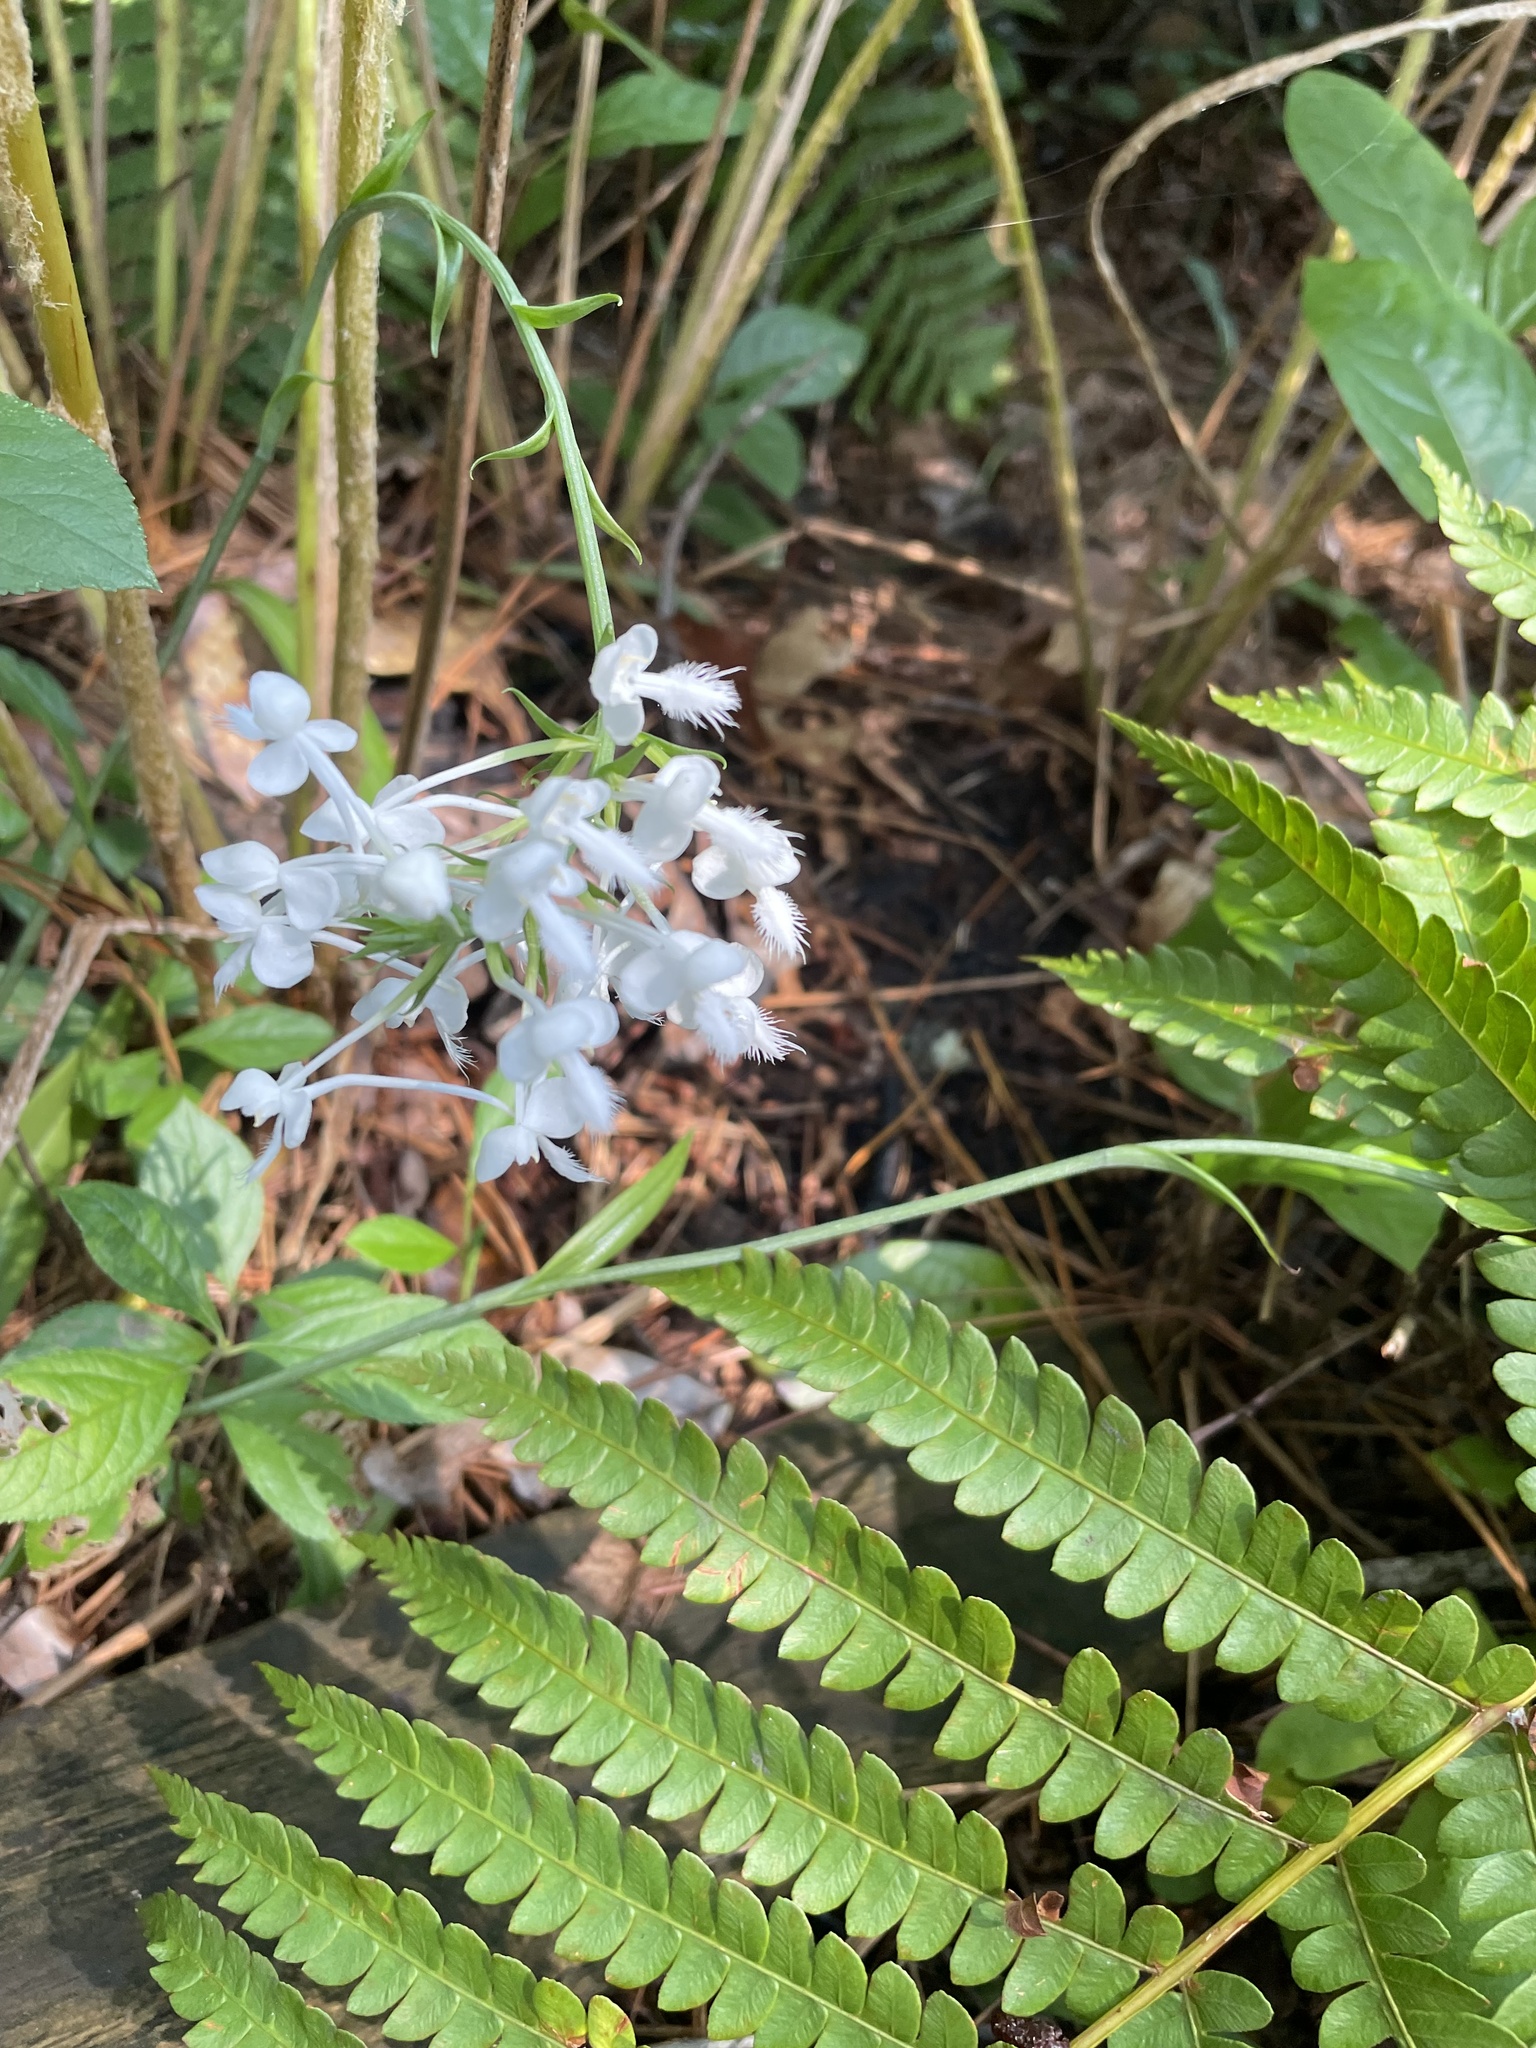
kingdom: Plantae
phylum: Tracheophyta
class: Liliopsida
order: Asparagales
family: Orchidaceae
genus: Platanthera
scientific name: Platanthera blephariglottis
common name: White fringed orchid
